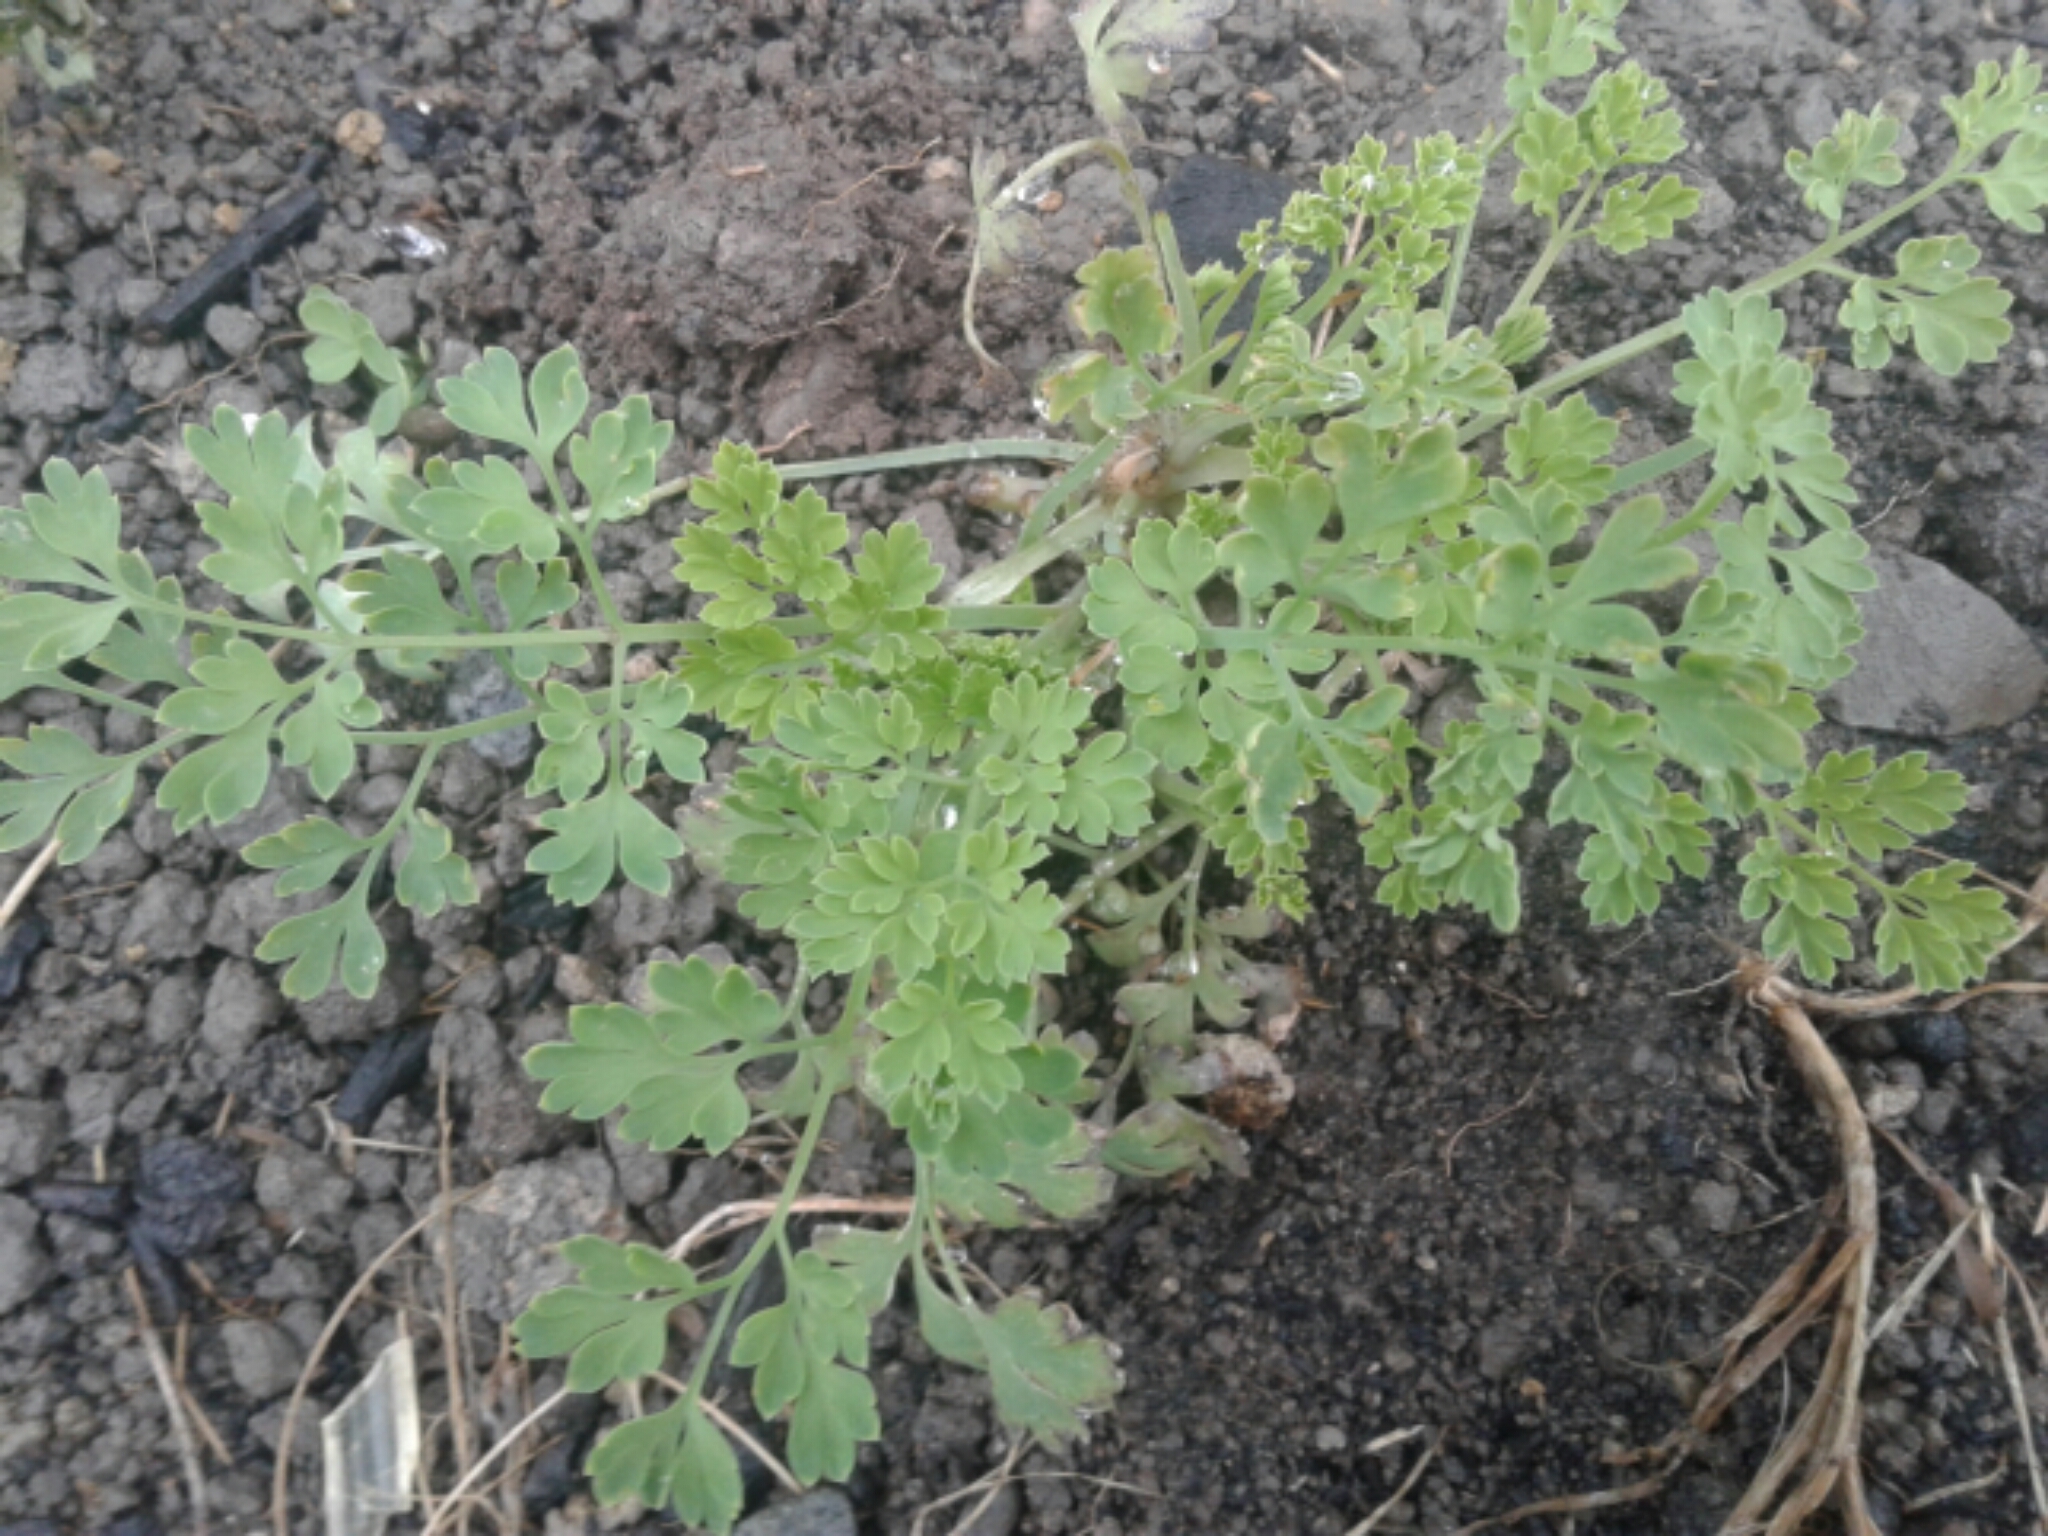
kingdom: Plantae
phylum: Tracheophyta
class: Magnoliopsida
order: Ranunculales
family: Papaveraceae
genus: Fumaria
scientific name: Fumaria
